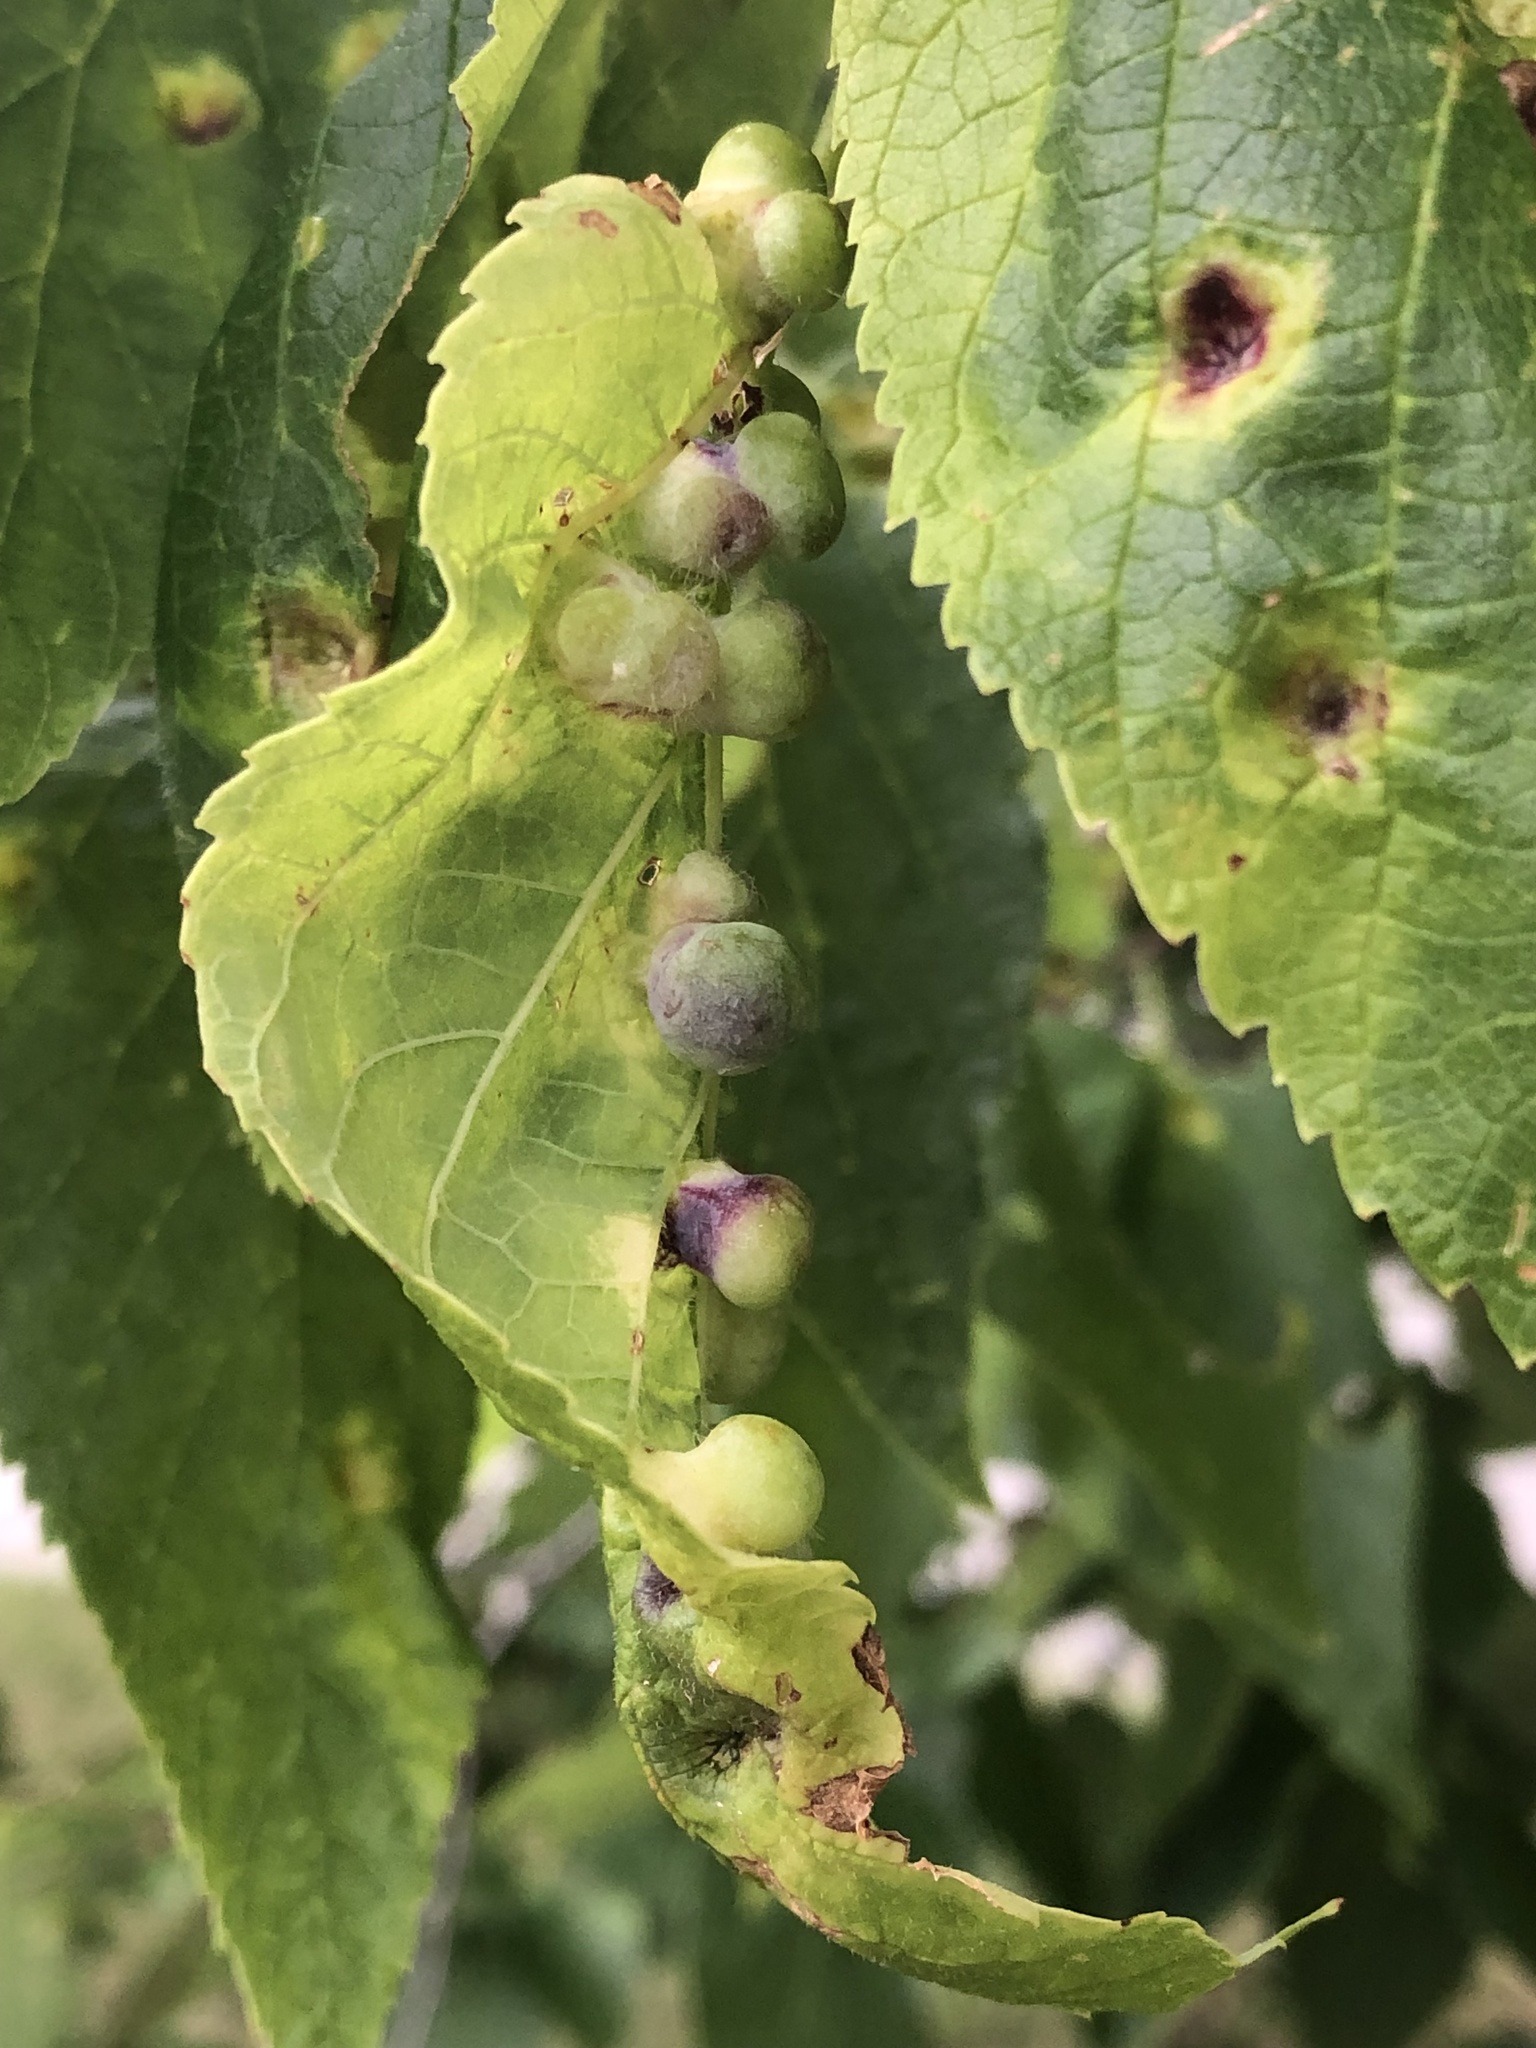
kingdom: Animalia
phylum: Arthropoda
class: Insecta
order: Hemiptera
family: Aphalaridae
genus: Pachypsylla
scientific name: Pachypsylla celtidismamma
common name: Hackberry nipplegall psyllid
